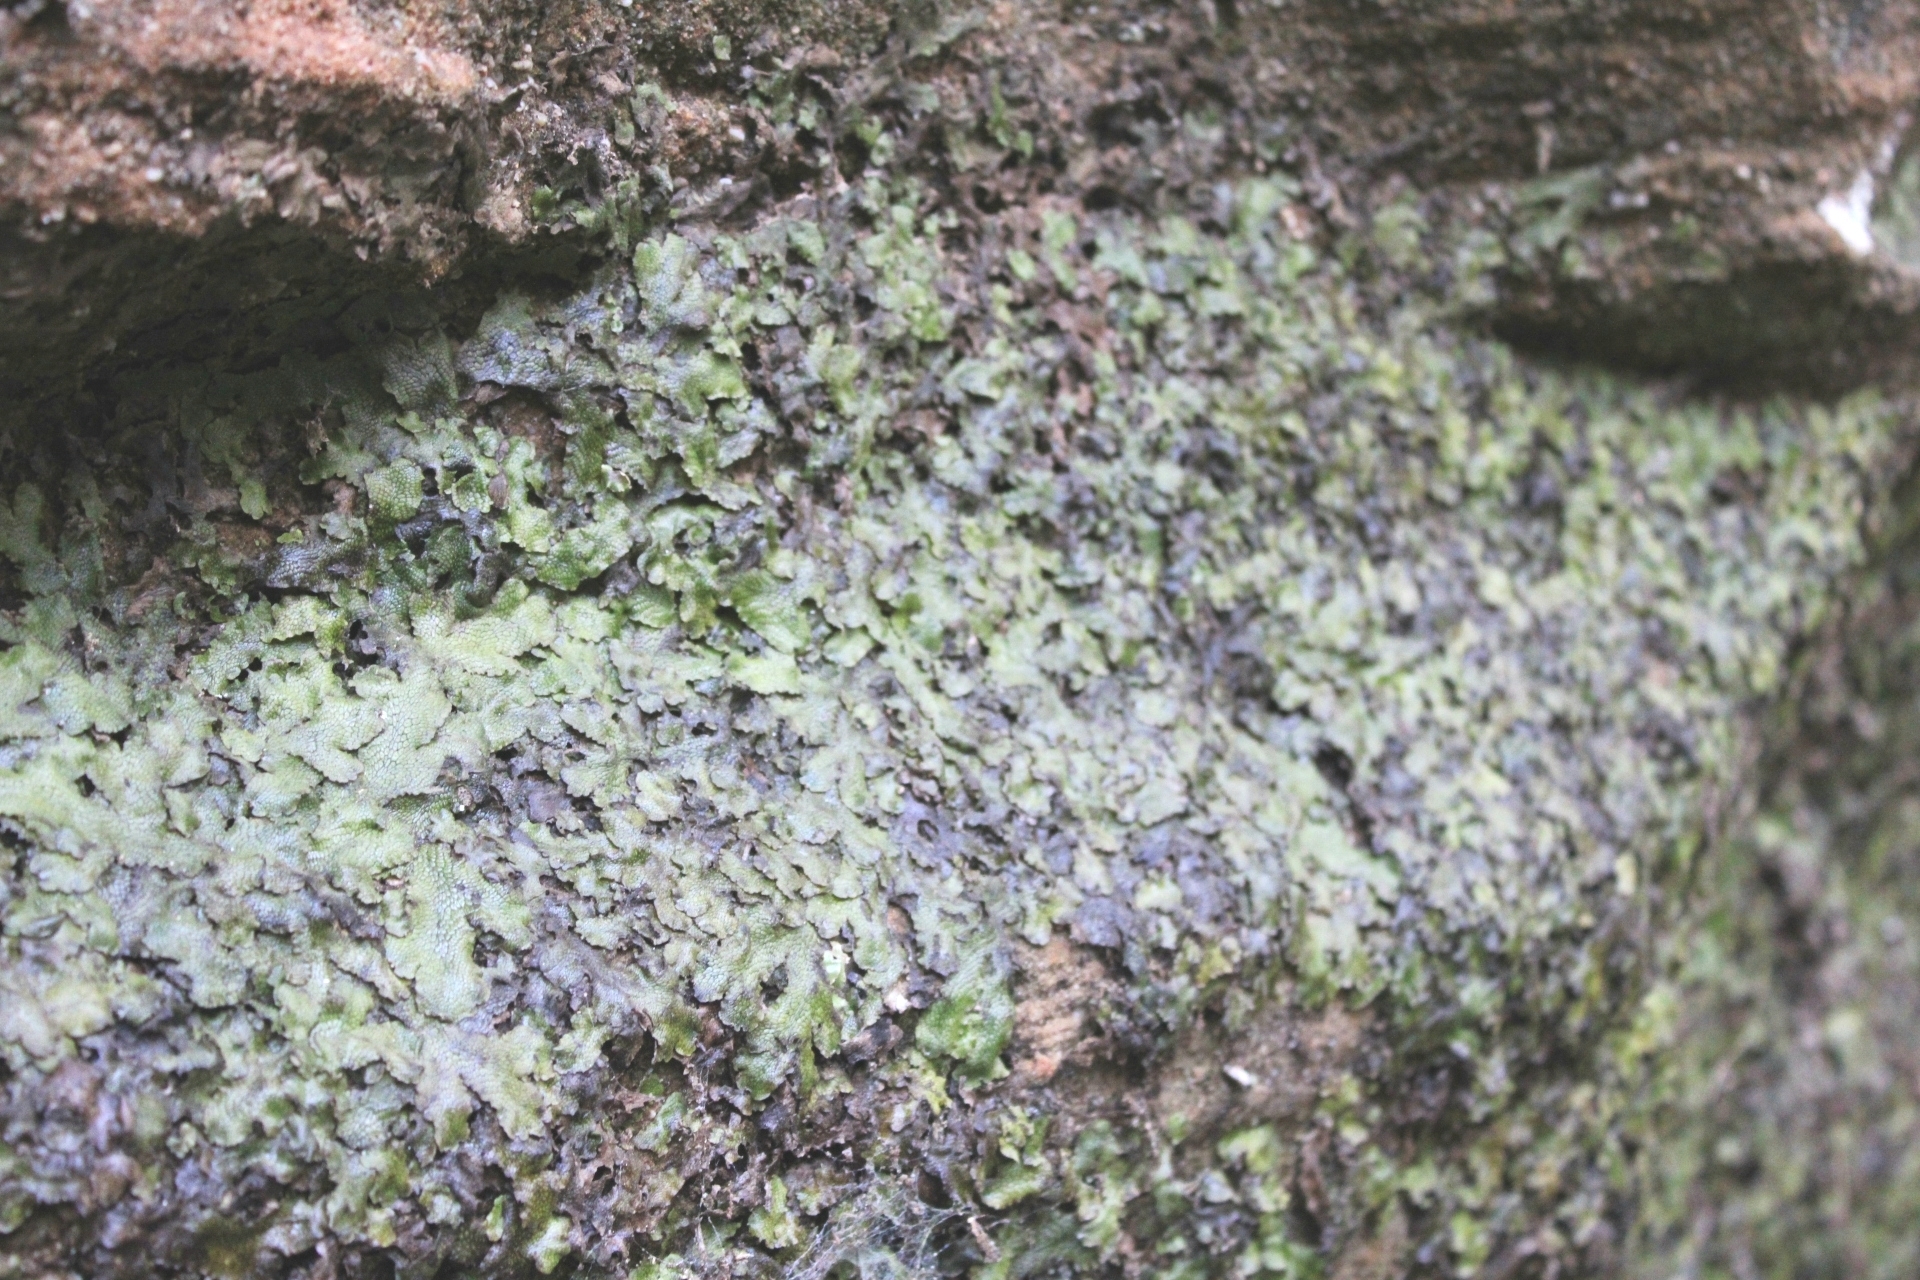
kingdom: Plantae
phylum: Marchantiophyta
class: Marchantiopsida
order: Marchantiales
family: Conocephalaceae
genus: Conocephalum
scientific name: Conocephalum salebrosum
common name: Cat-tongue liverwort
